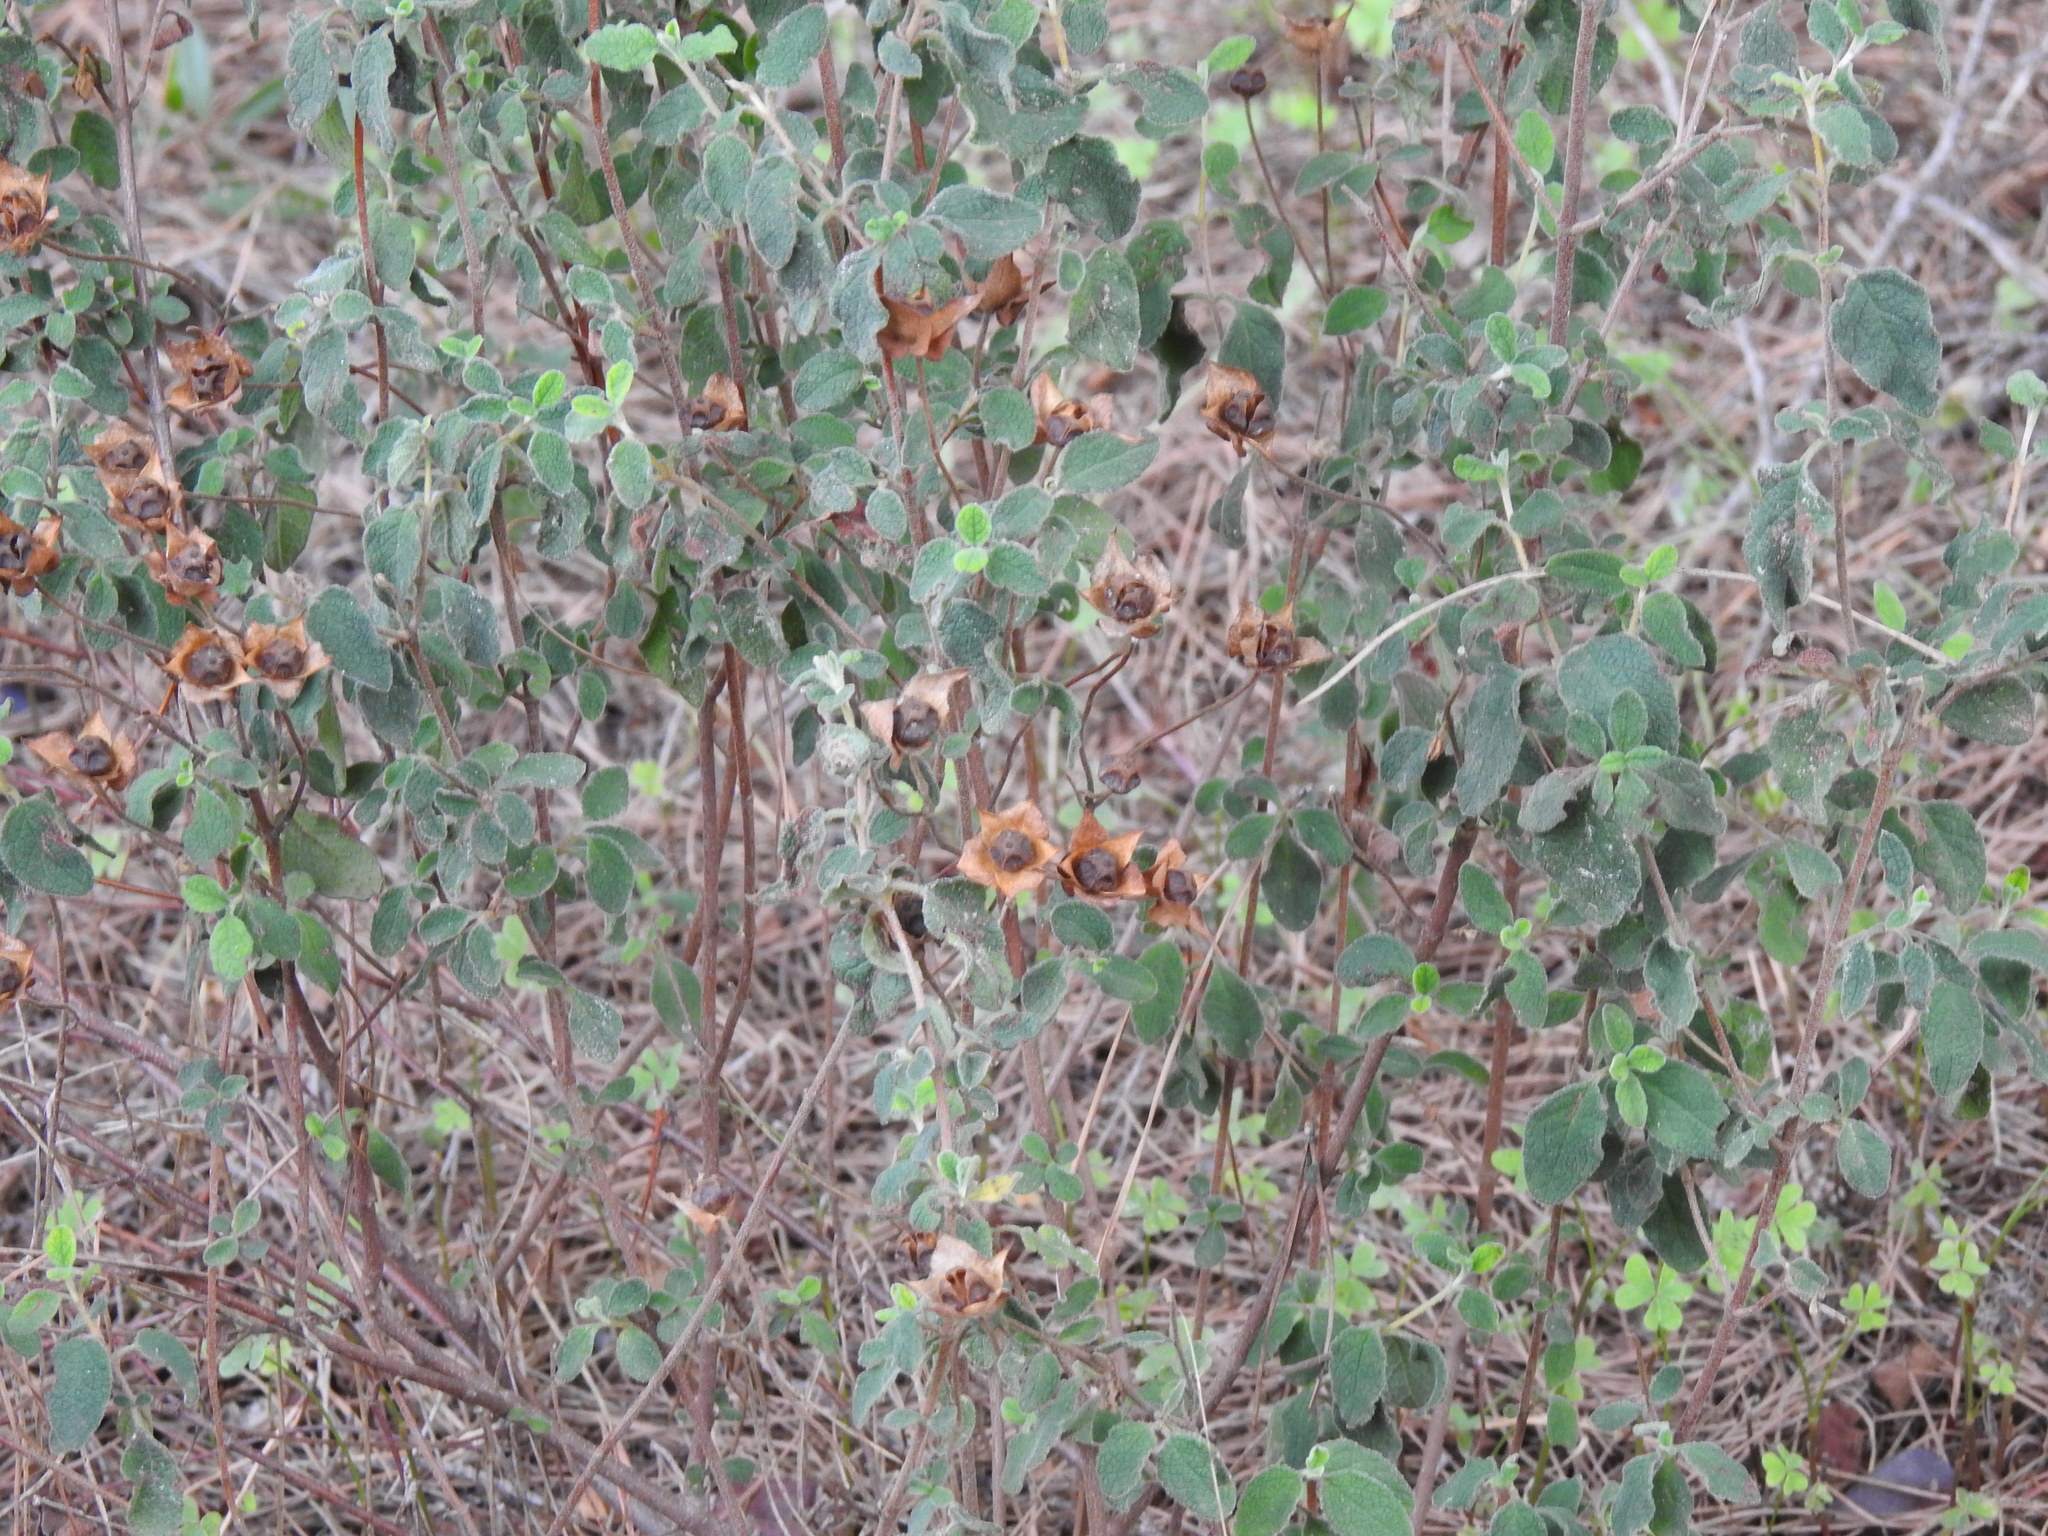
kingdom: Plantae
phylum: Tracheophyta
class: Magnoliopsida
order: Malvales
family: Cistaceae
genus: Cistus
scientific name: Cistus salviifolius
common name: Salvia cistus
